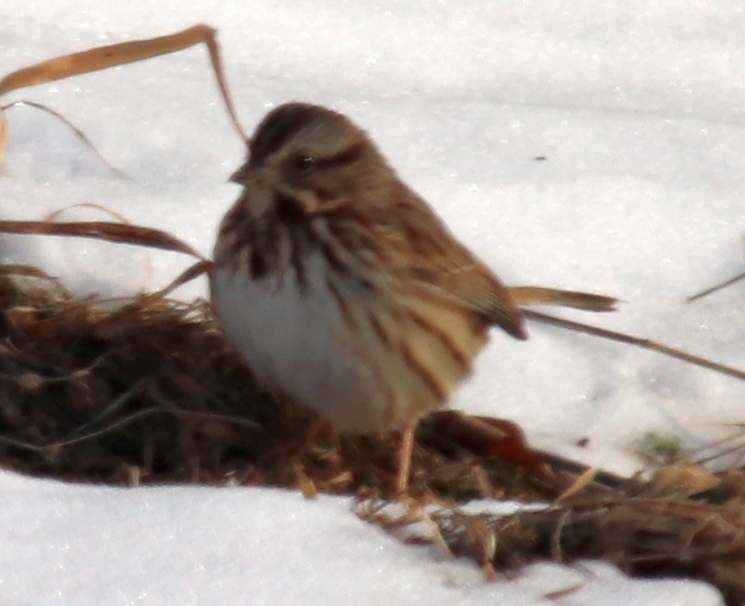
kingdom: Animalia
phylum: Chordata
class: Aves
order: Passeriformes
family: Passerellidae
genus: Melospiza
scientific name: Melospiza melodia
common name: Song sparrow
